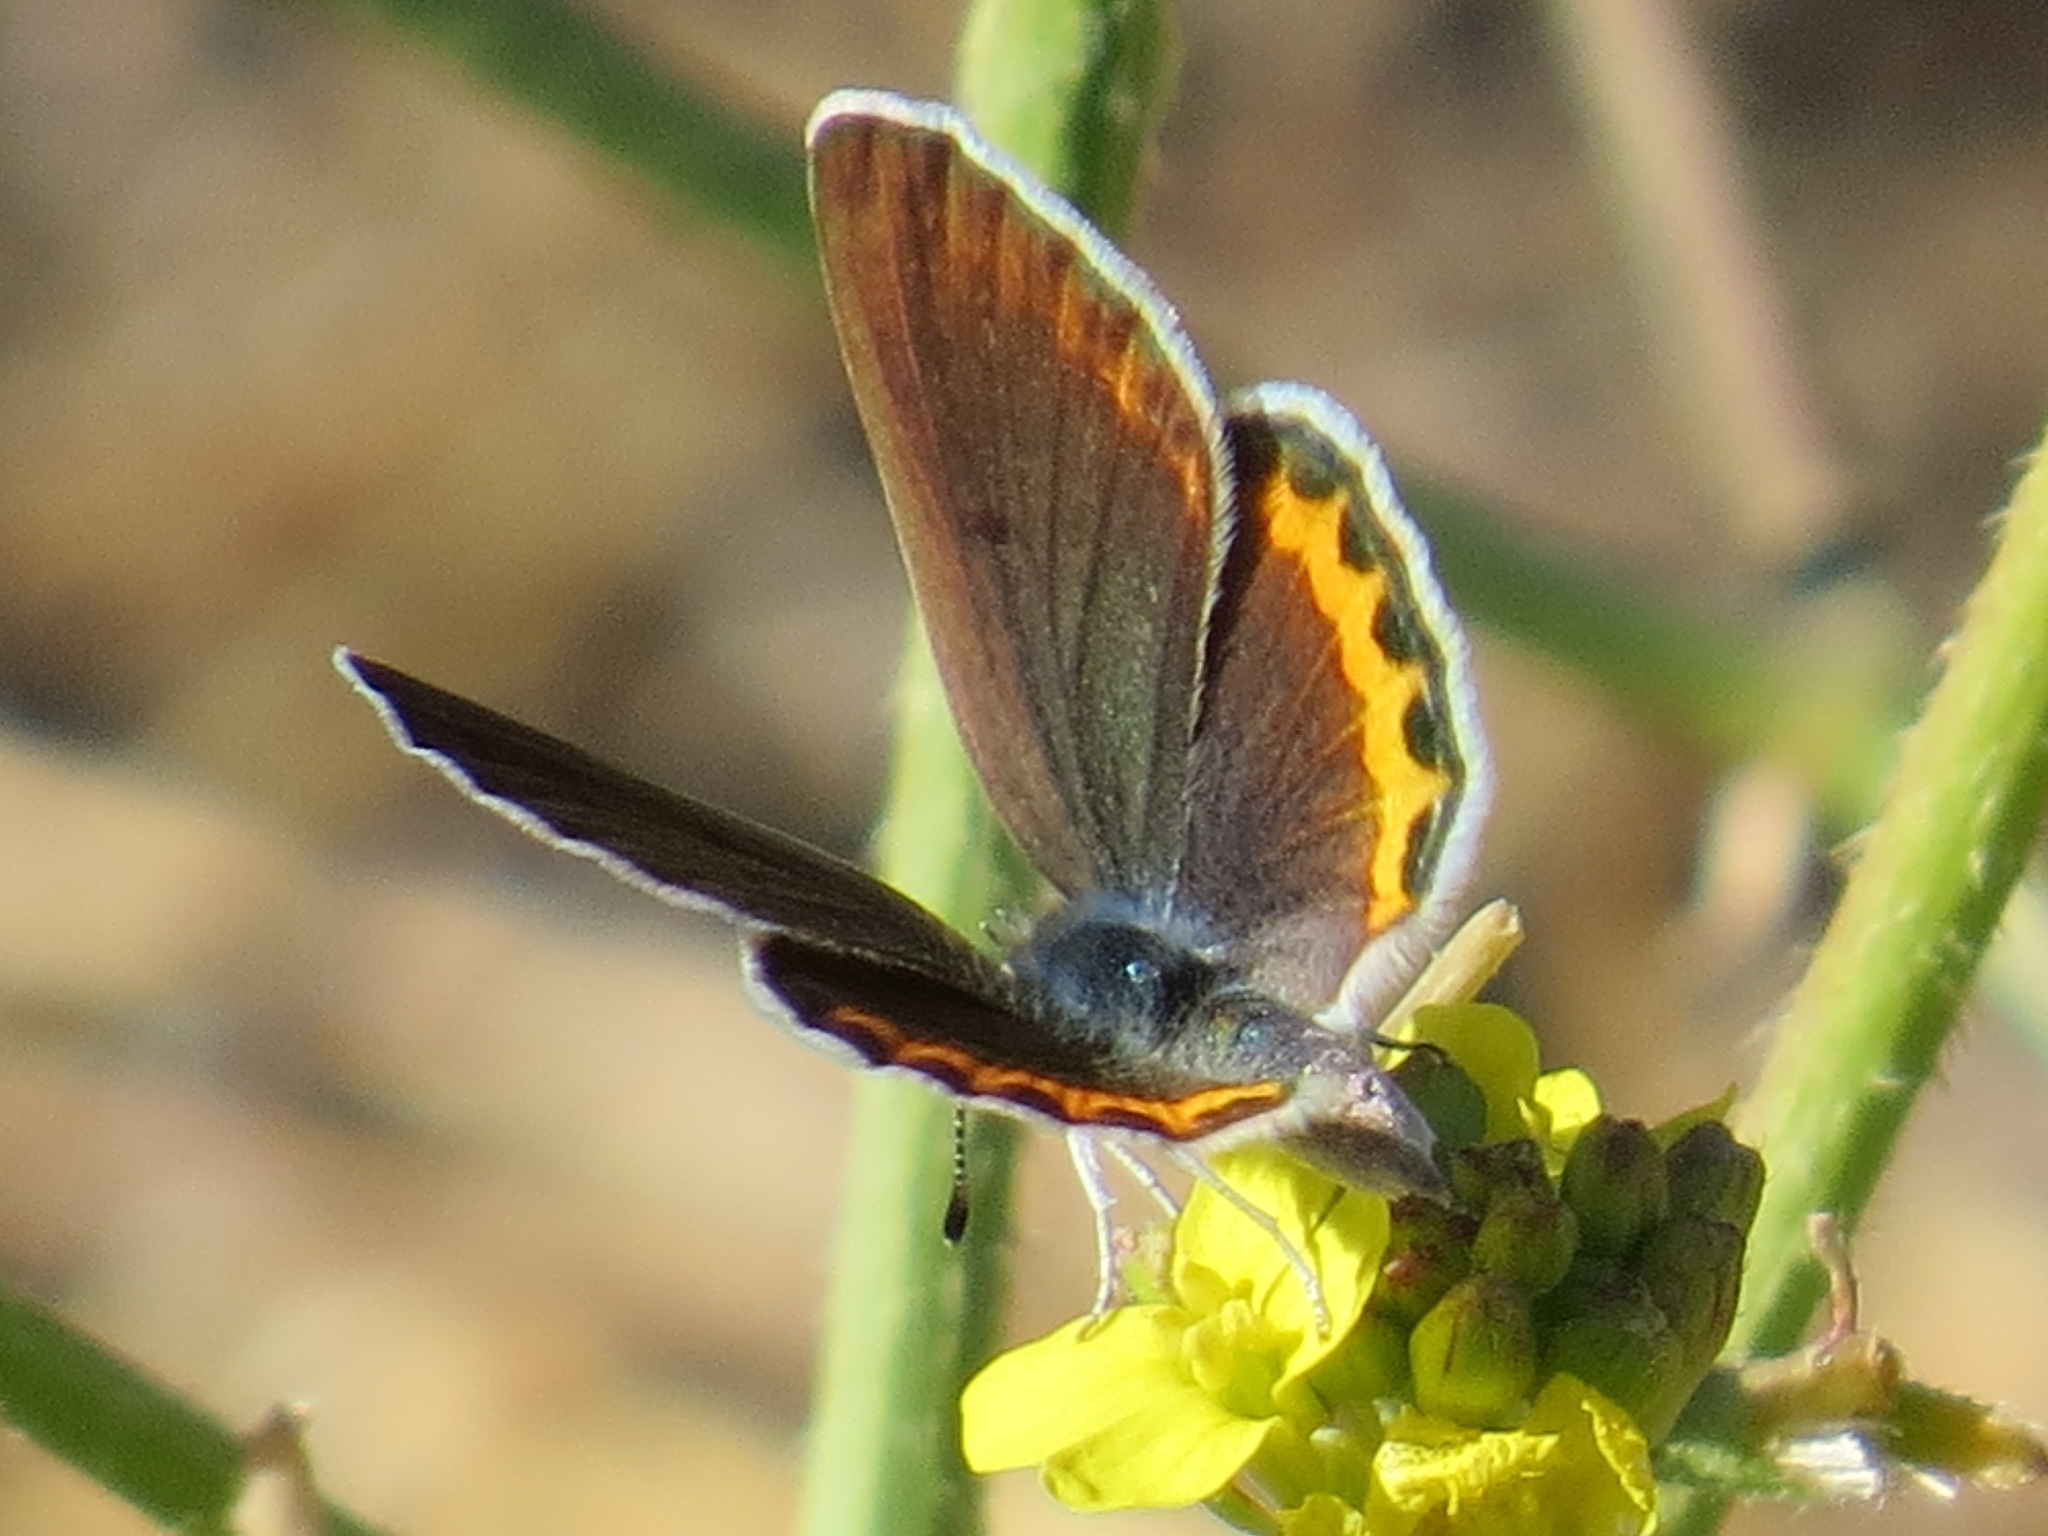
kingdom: Animalia
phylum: Arthropoda
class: Insecta
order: Lepidoptera
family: Lycaenidae
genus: Icaricia
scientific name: Icaricia acmon
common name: Acmon blue
